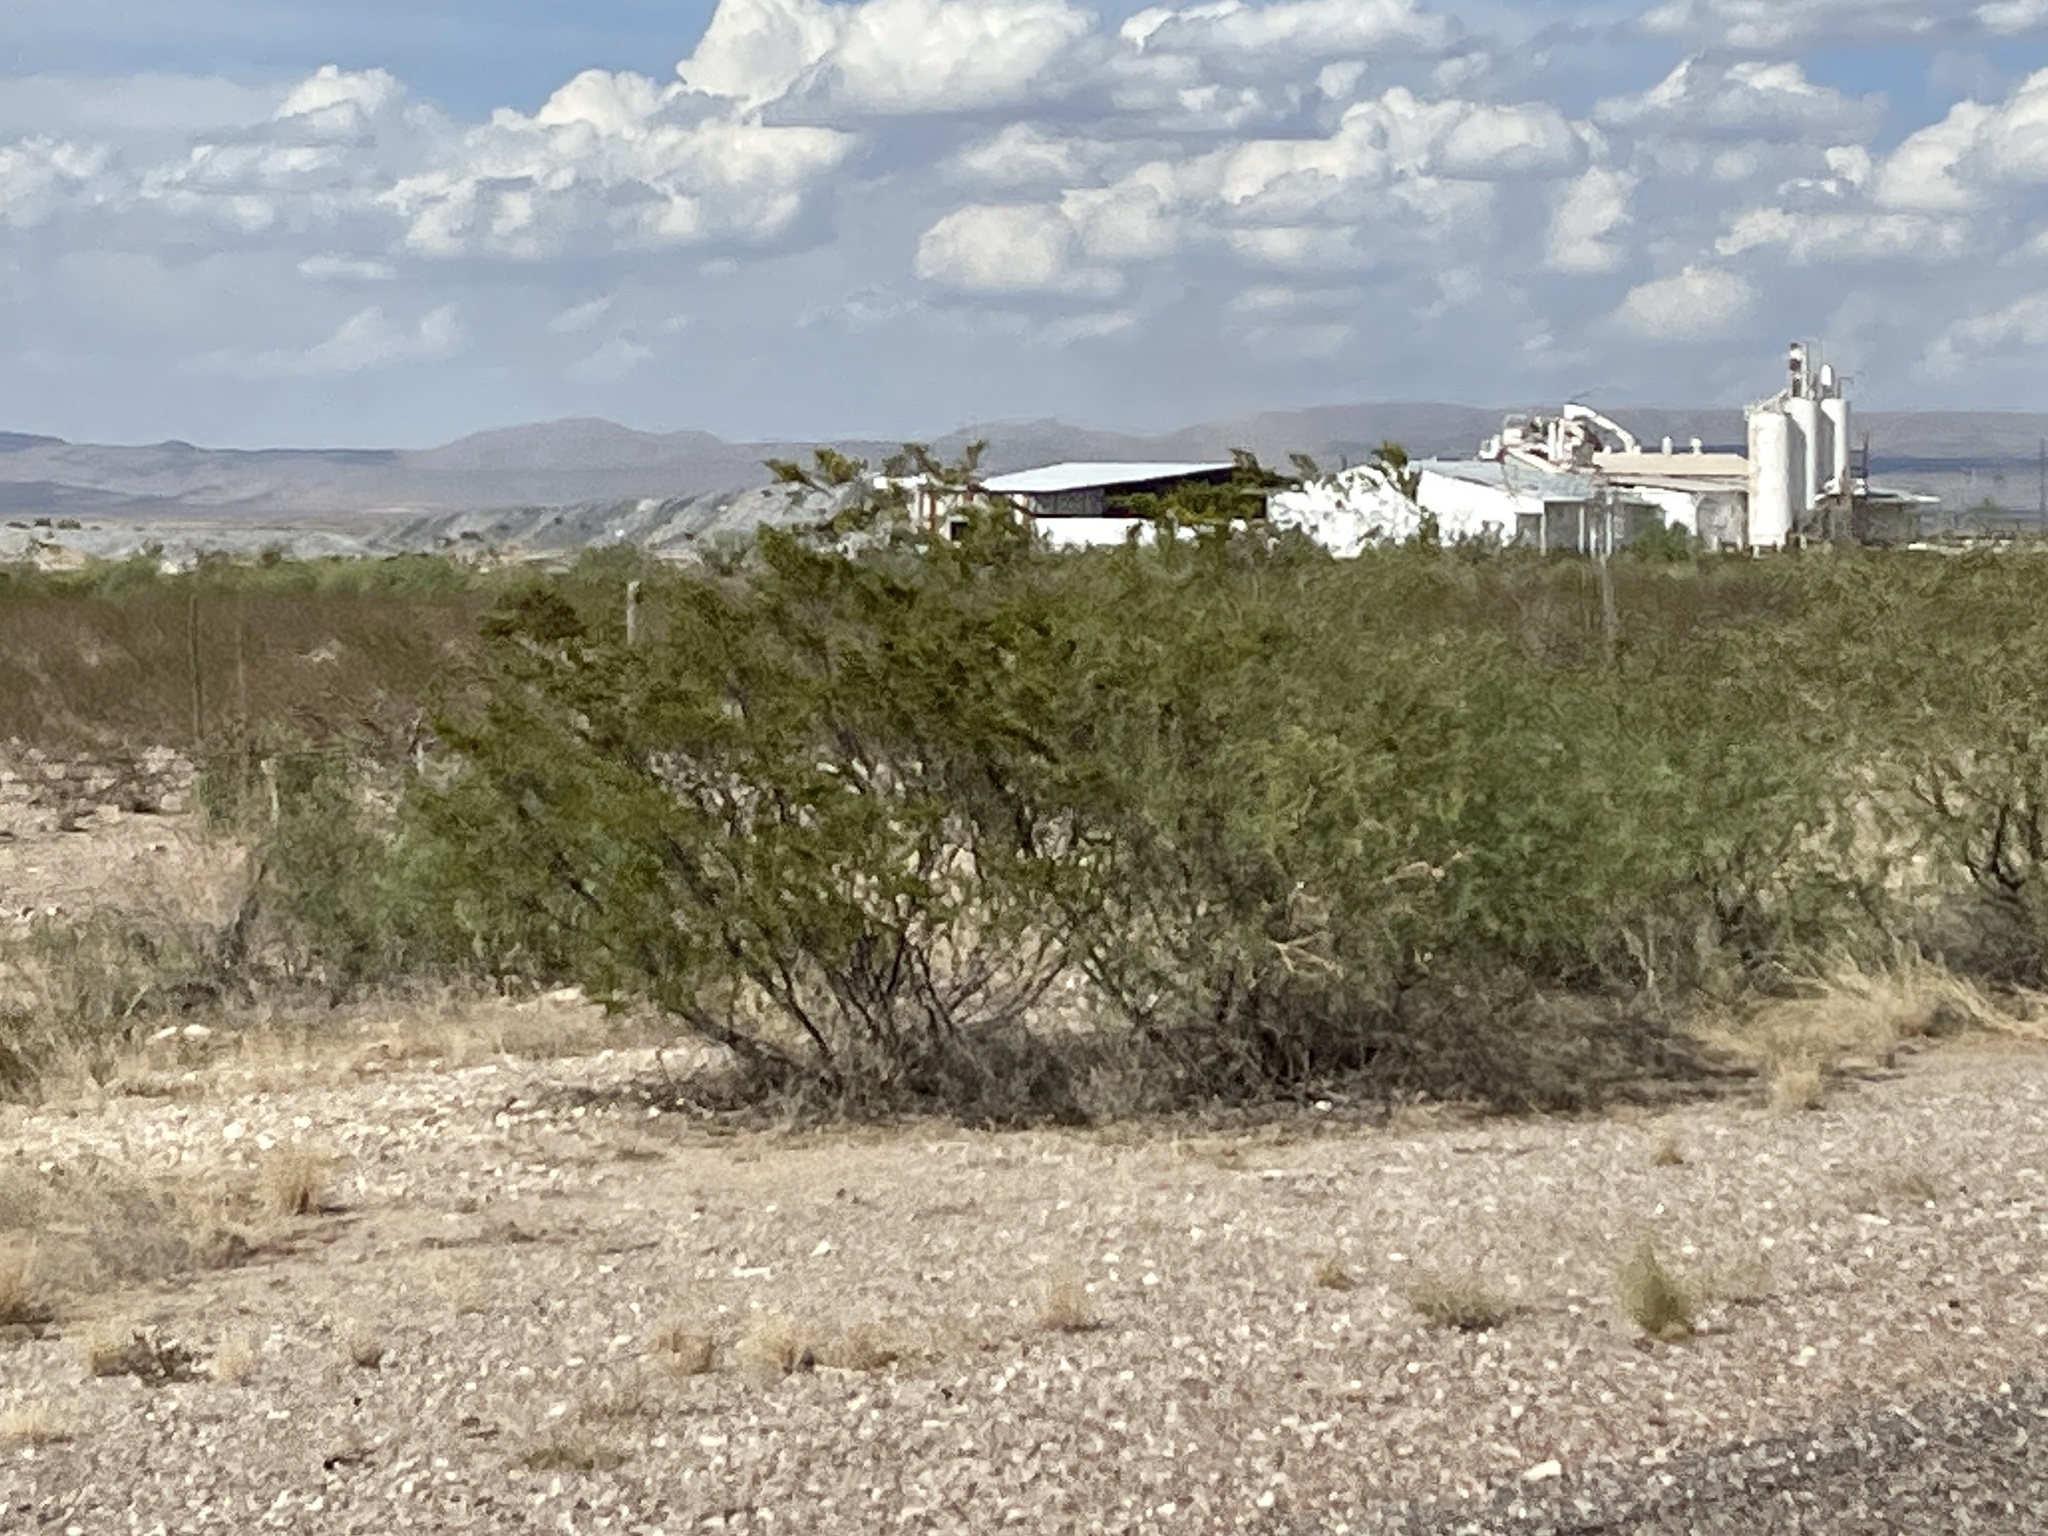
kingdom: Plantae
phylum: Tracheophyta
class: Magnoliopsida
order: Zygophyllales
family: Zygophyllaceae
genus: Larrea
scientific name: Larrea tridentata
